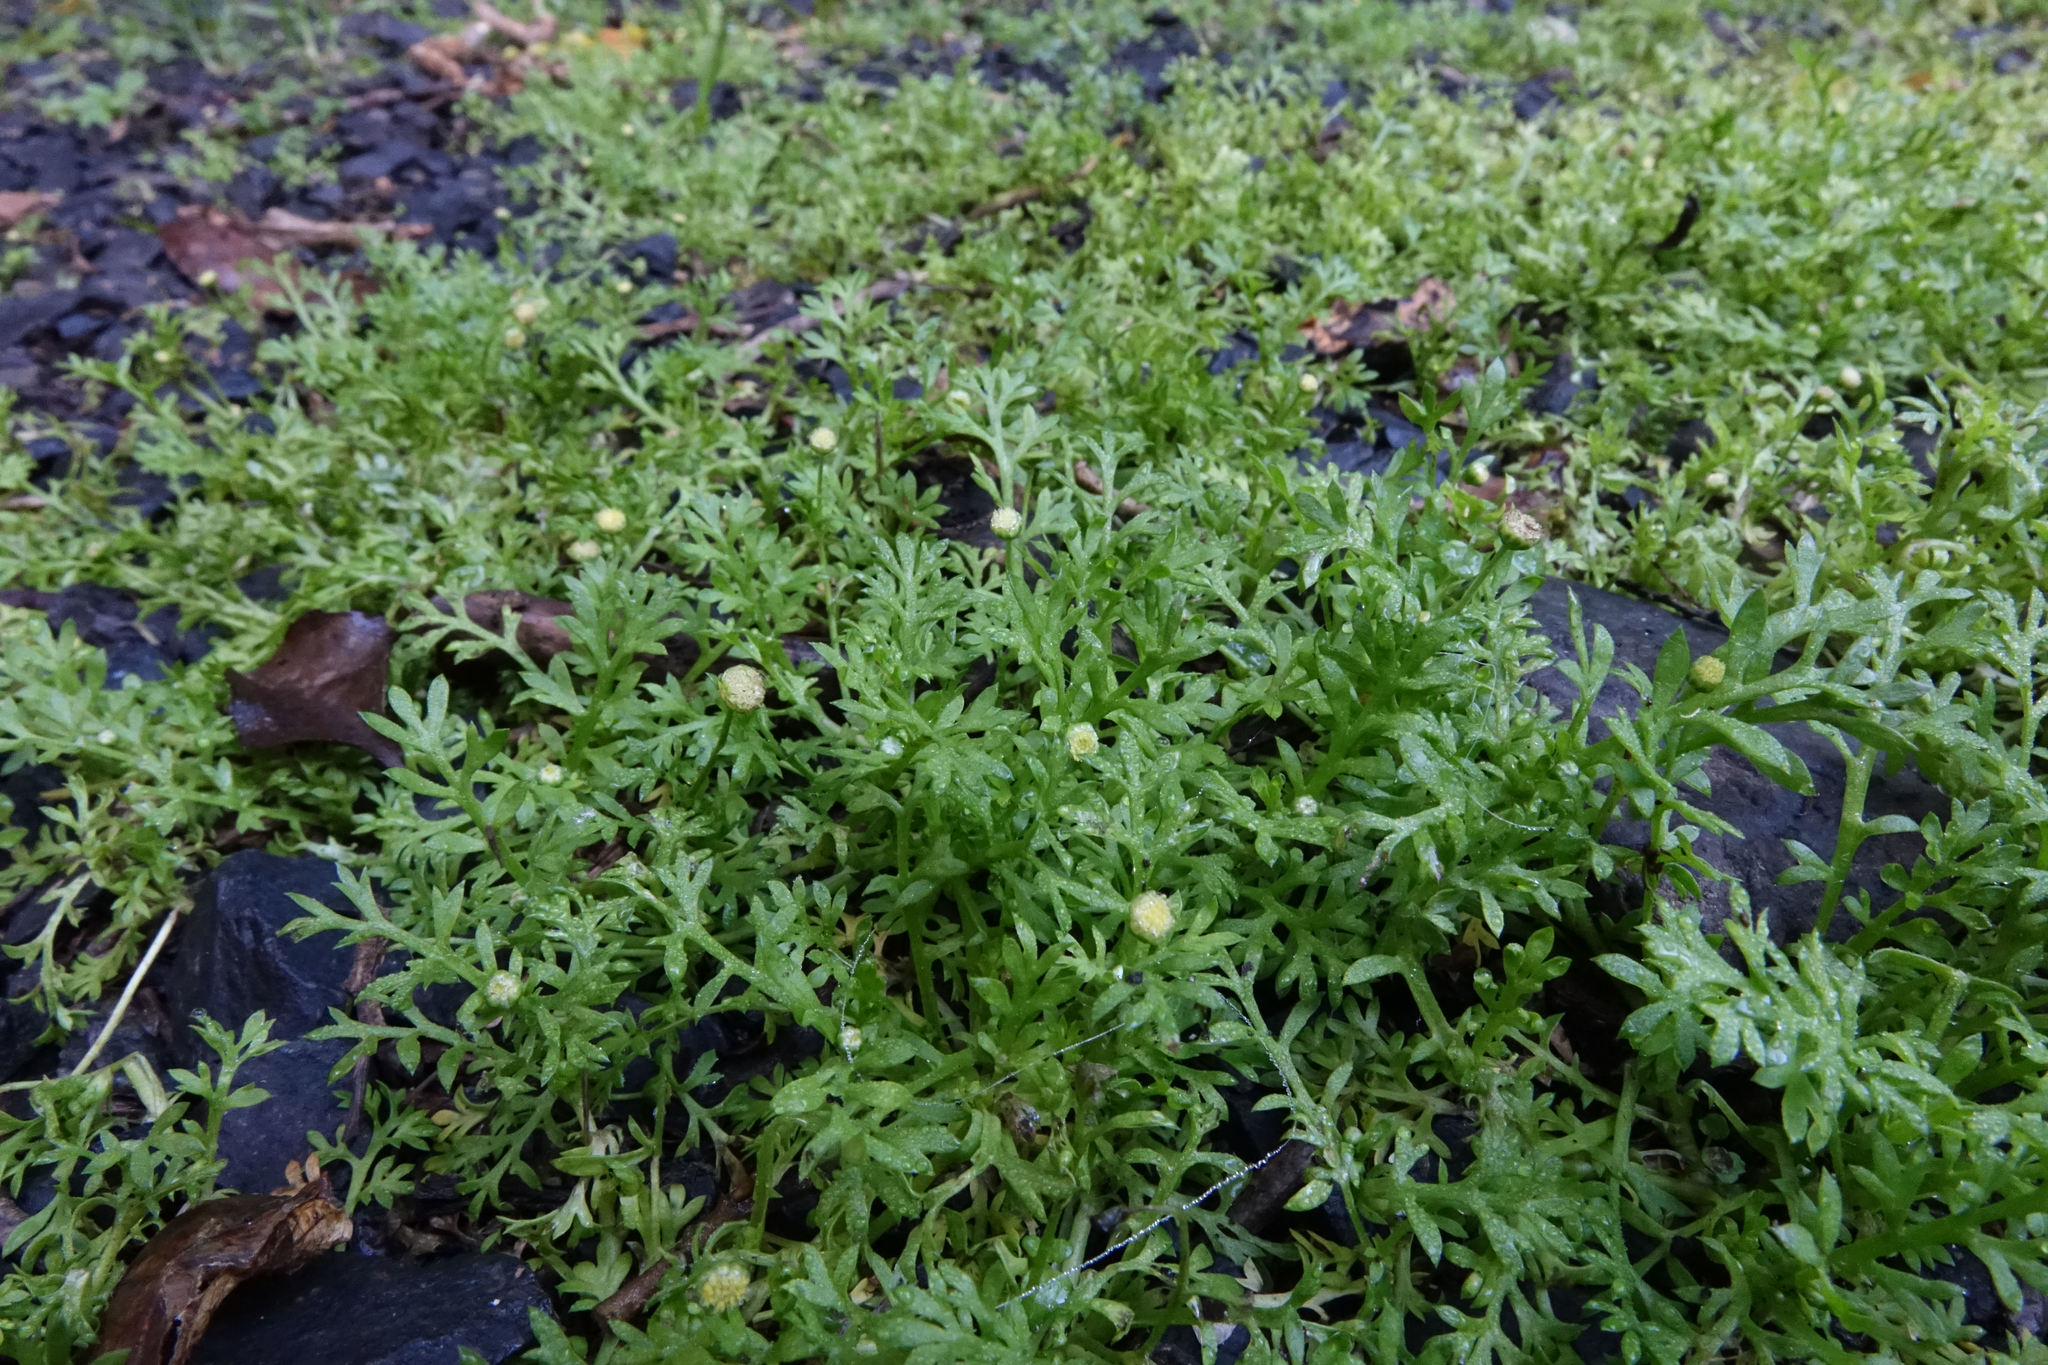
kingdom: Plantae
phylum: Tracheophyta
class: Magnoliopsida
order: Asterales
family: Asteraceae
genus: Cotula
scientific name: Cotula australis
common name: Australian waterbuttons
